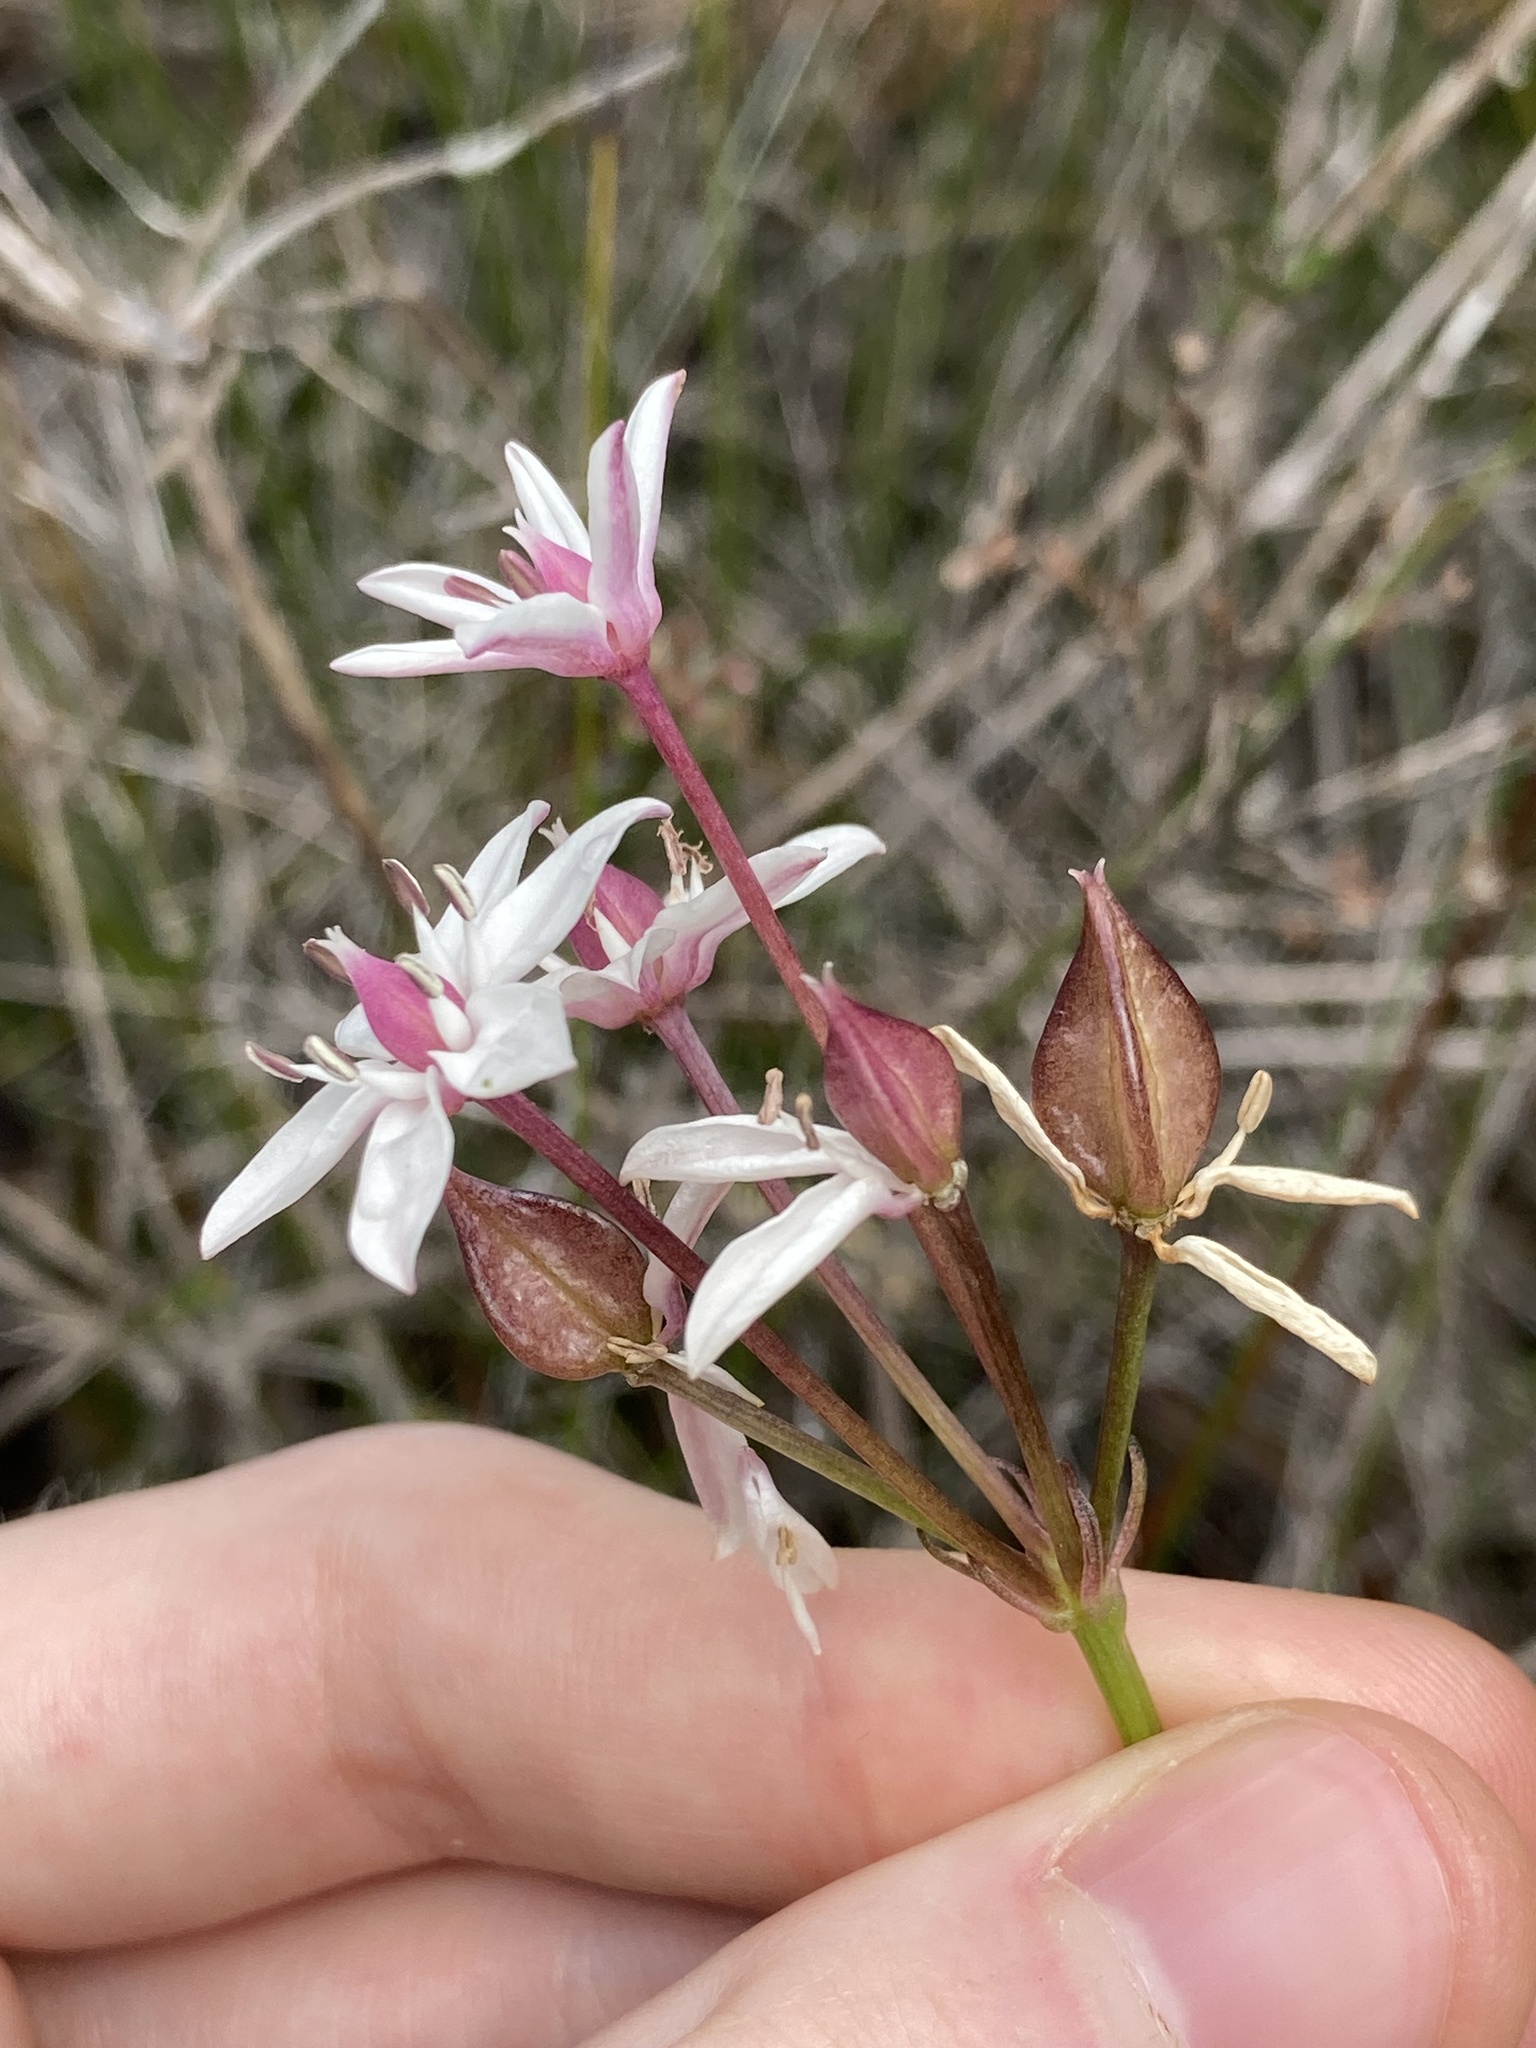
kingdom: Plantae
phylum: Tracheophyta
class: Liliopsida
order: Liliales
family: Colchicaceae
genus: Burchardia
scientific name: Burchardia umbellata
